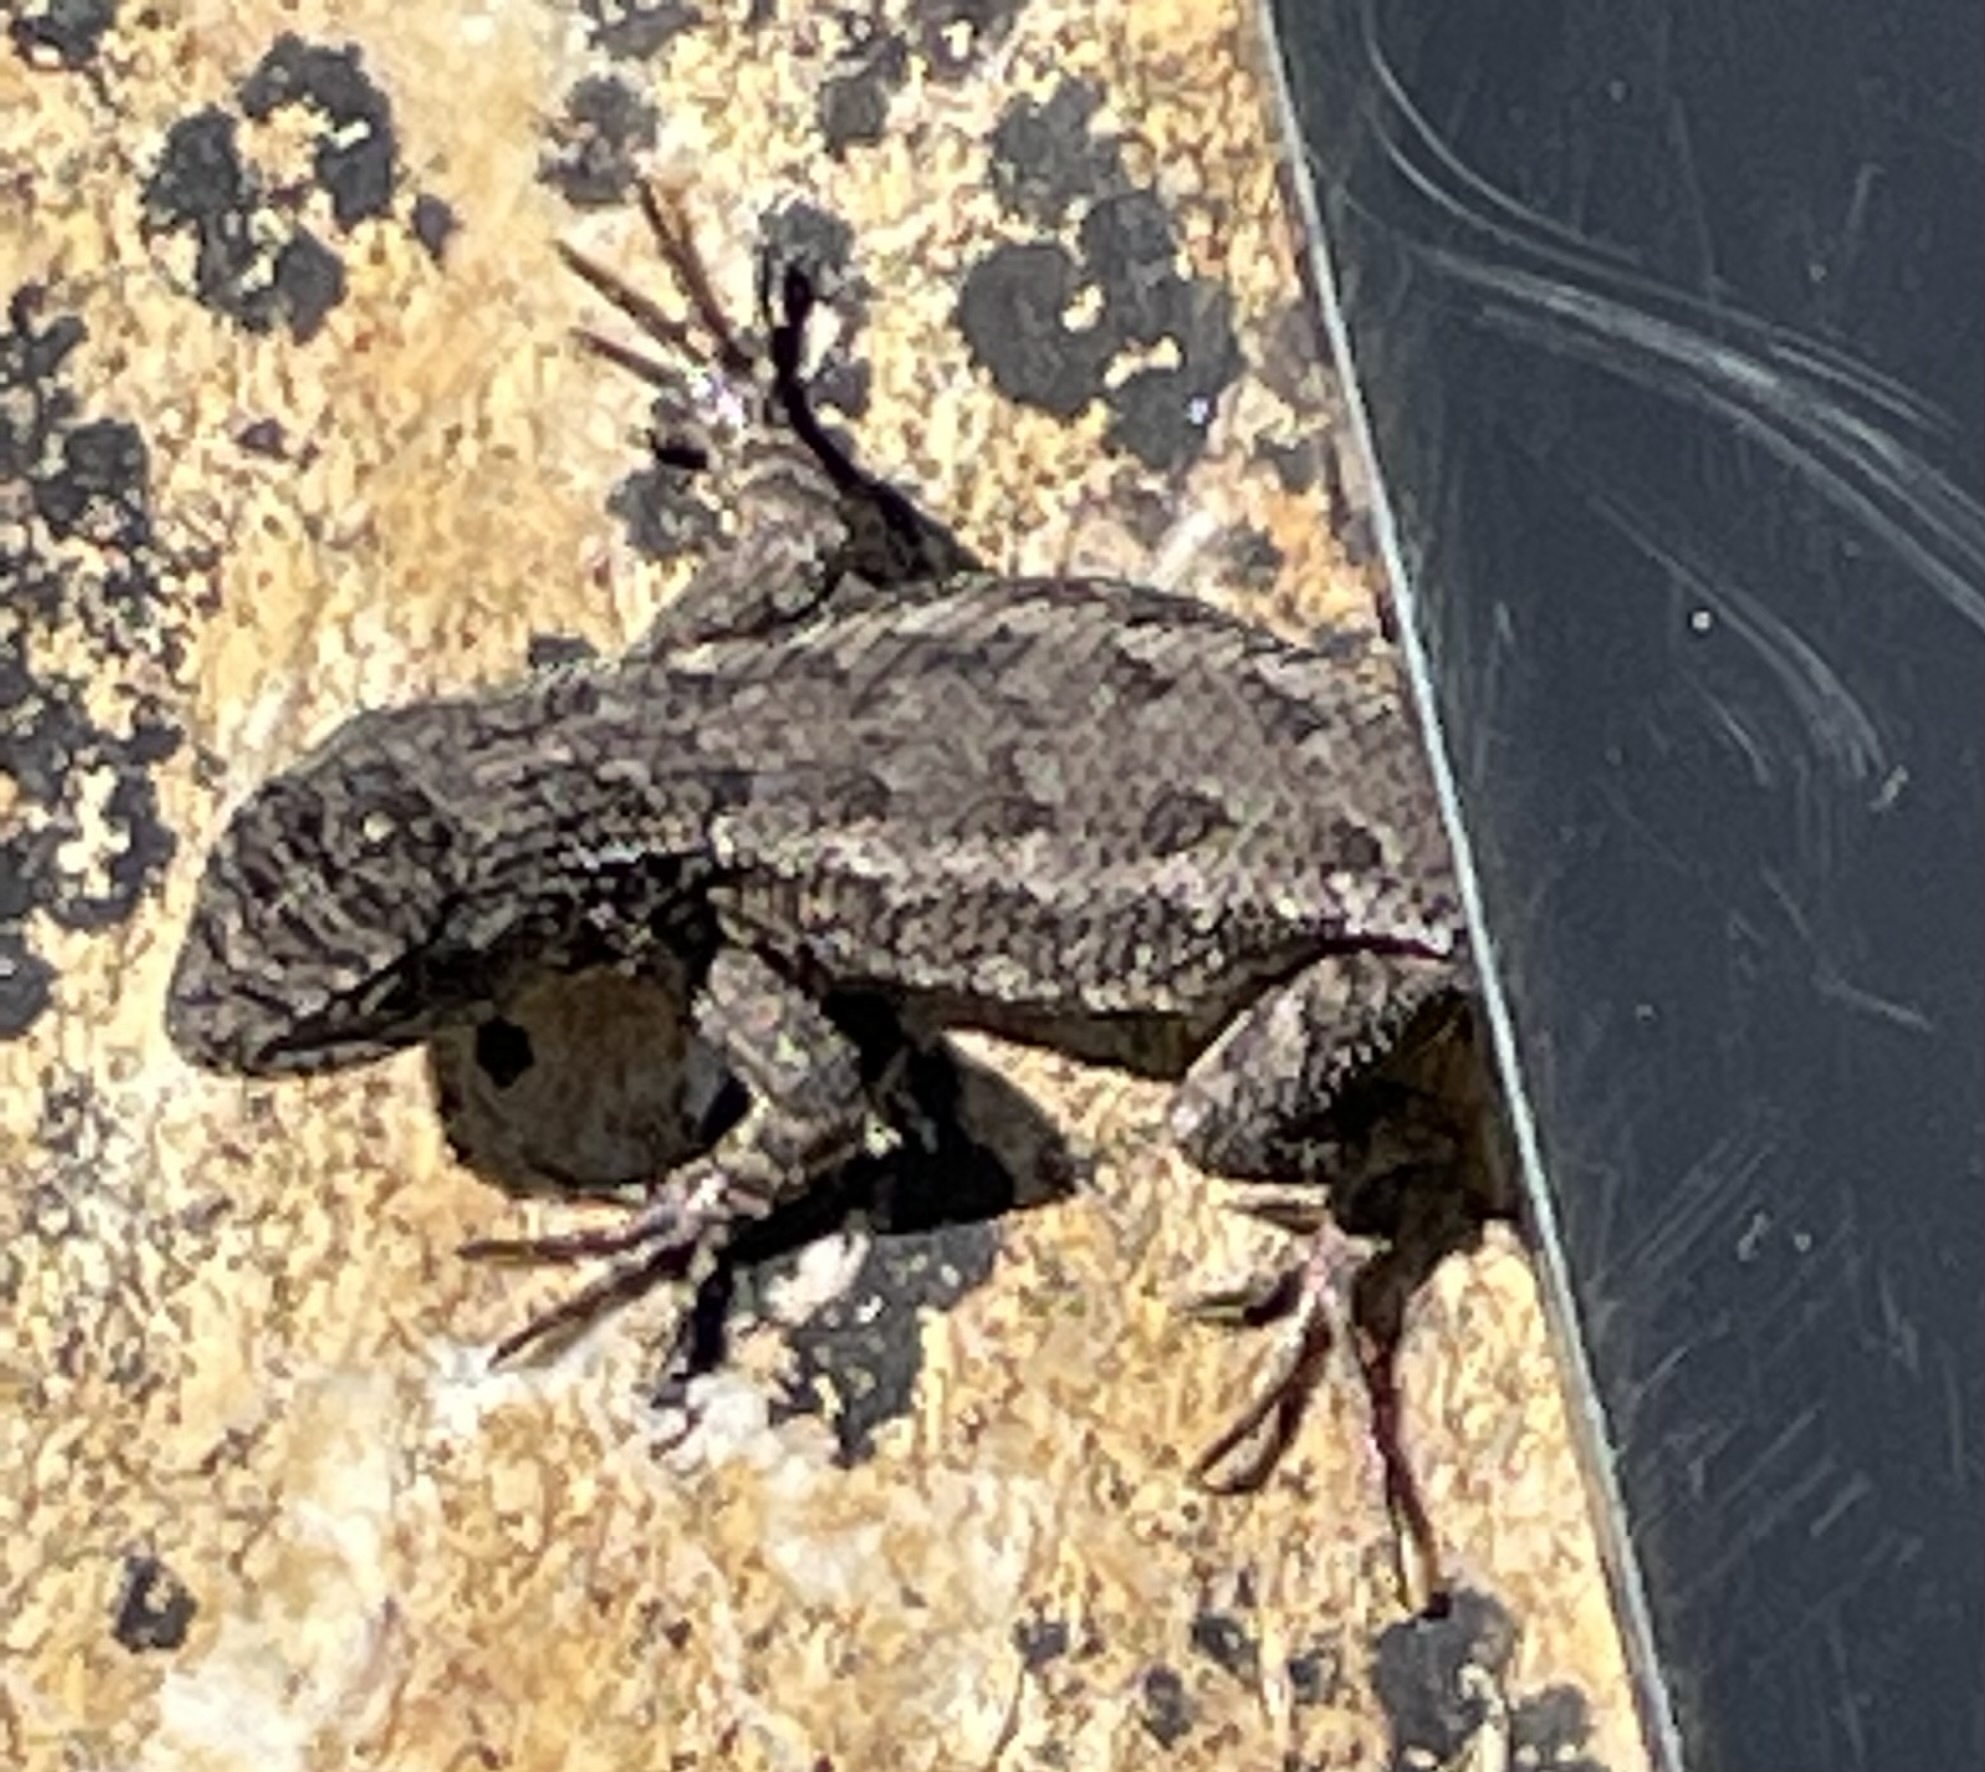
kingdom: Animalia
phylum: Chordata
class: Squamata
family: Phrynosomatidae
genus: Sceloporus
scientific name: Sceloporus occidentalis
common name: Western fence lizard
